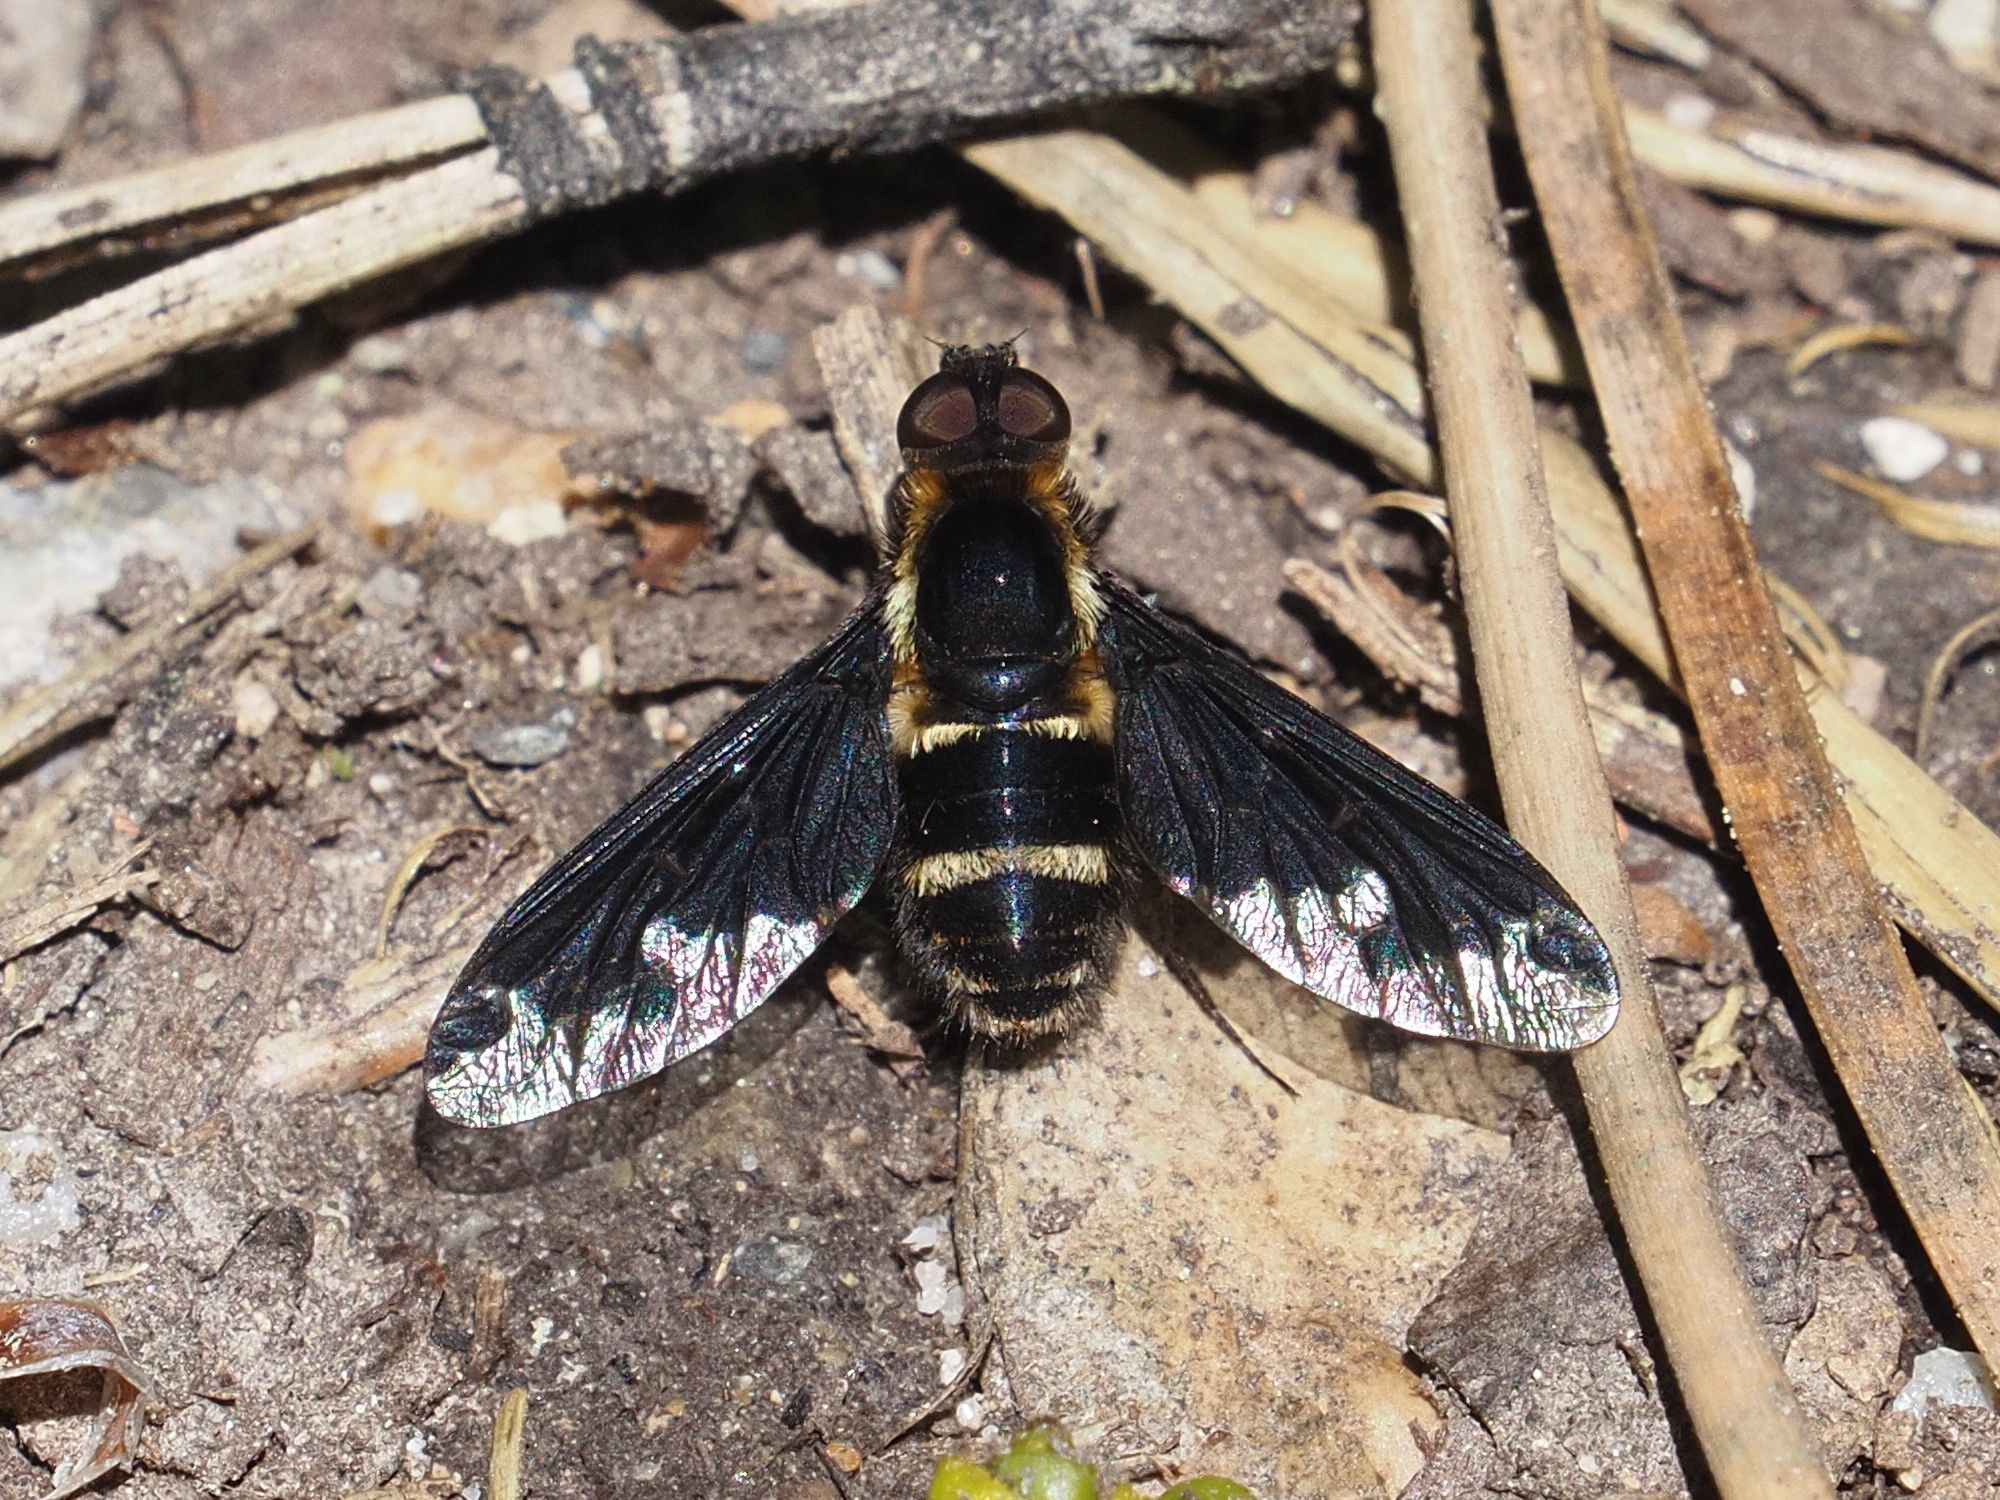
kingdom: Animalia
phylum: Arthropoda
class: Insecta
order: Diptera
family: Bombyliidae
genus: Hemipenthes
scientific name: Hemipenthes maura
